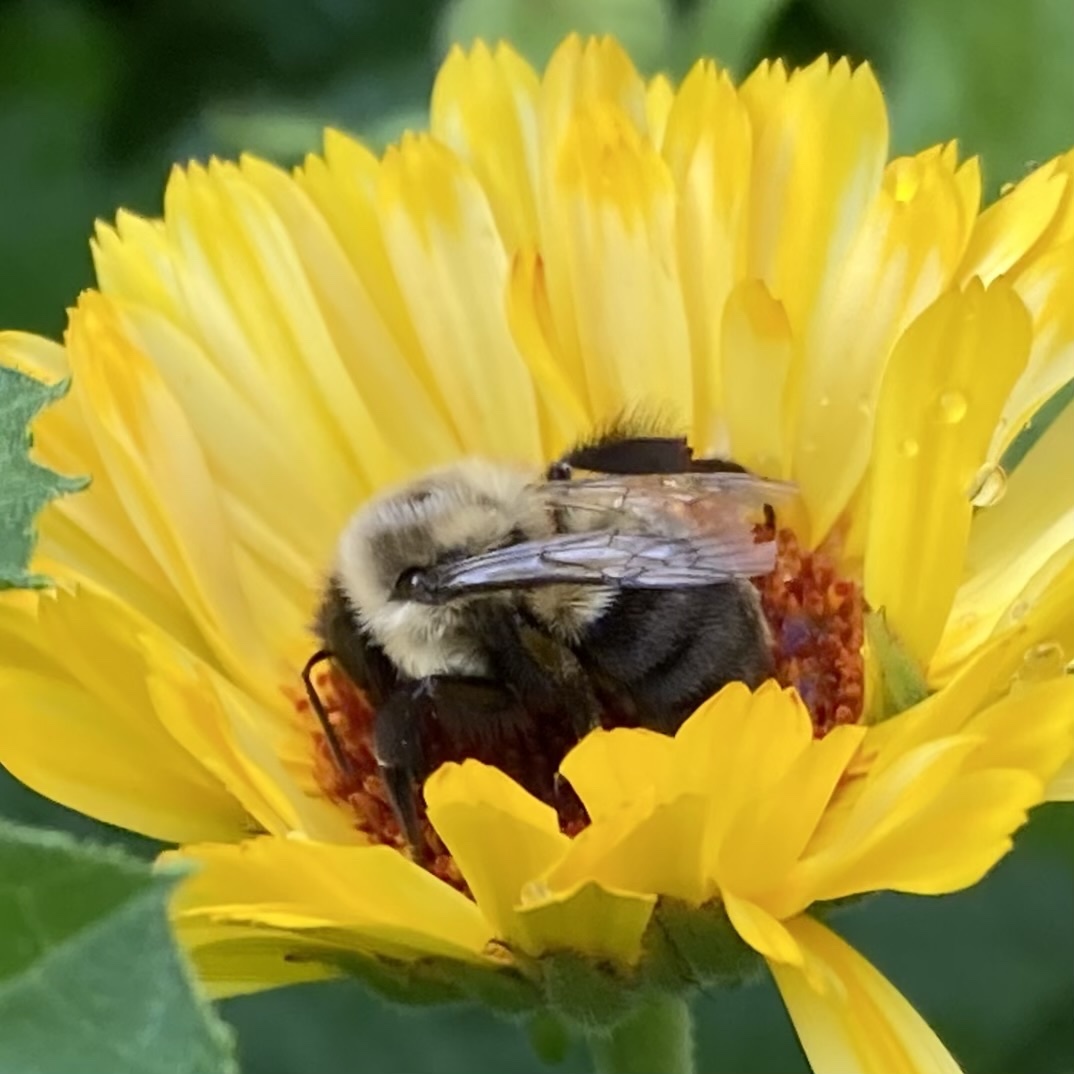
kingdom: Animalia
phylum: Arthropoda
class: Insecta
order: Hymenoptera
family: Apidae
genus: Bombus
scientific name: Bombus impatiens
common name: Common eastern bumble bee
